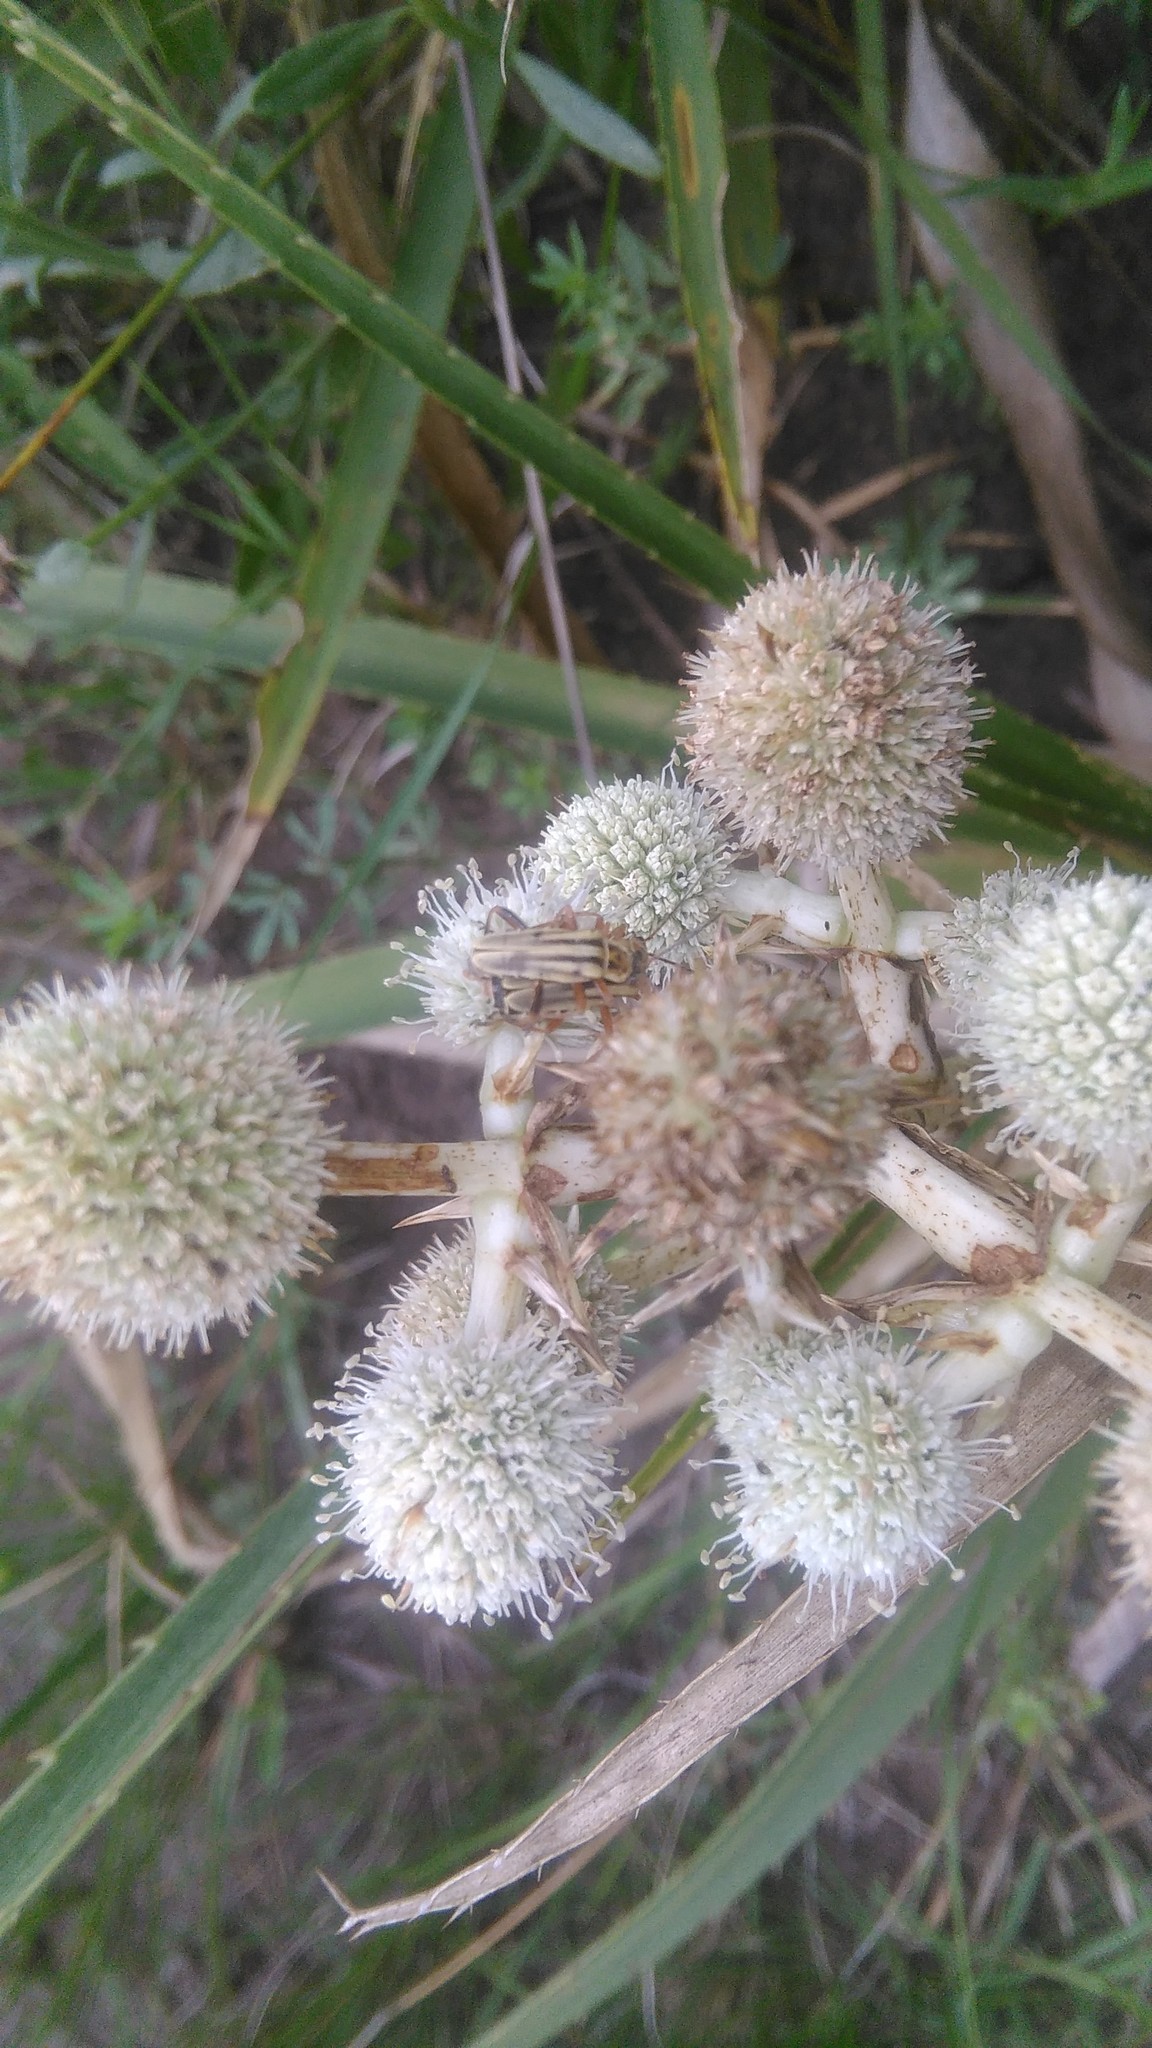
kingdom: Animalia
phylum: Arthropoda
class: Insecta
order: Coleoptera
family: Cantharidae
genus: Chauliognathus
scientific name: Chauliognathus
